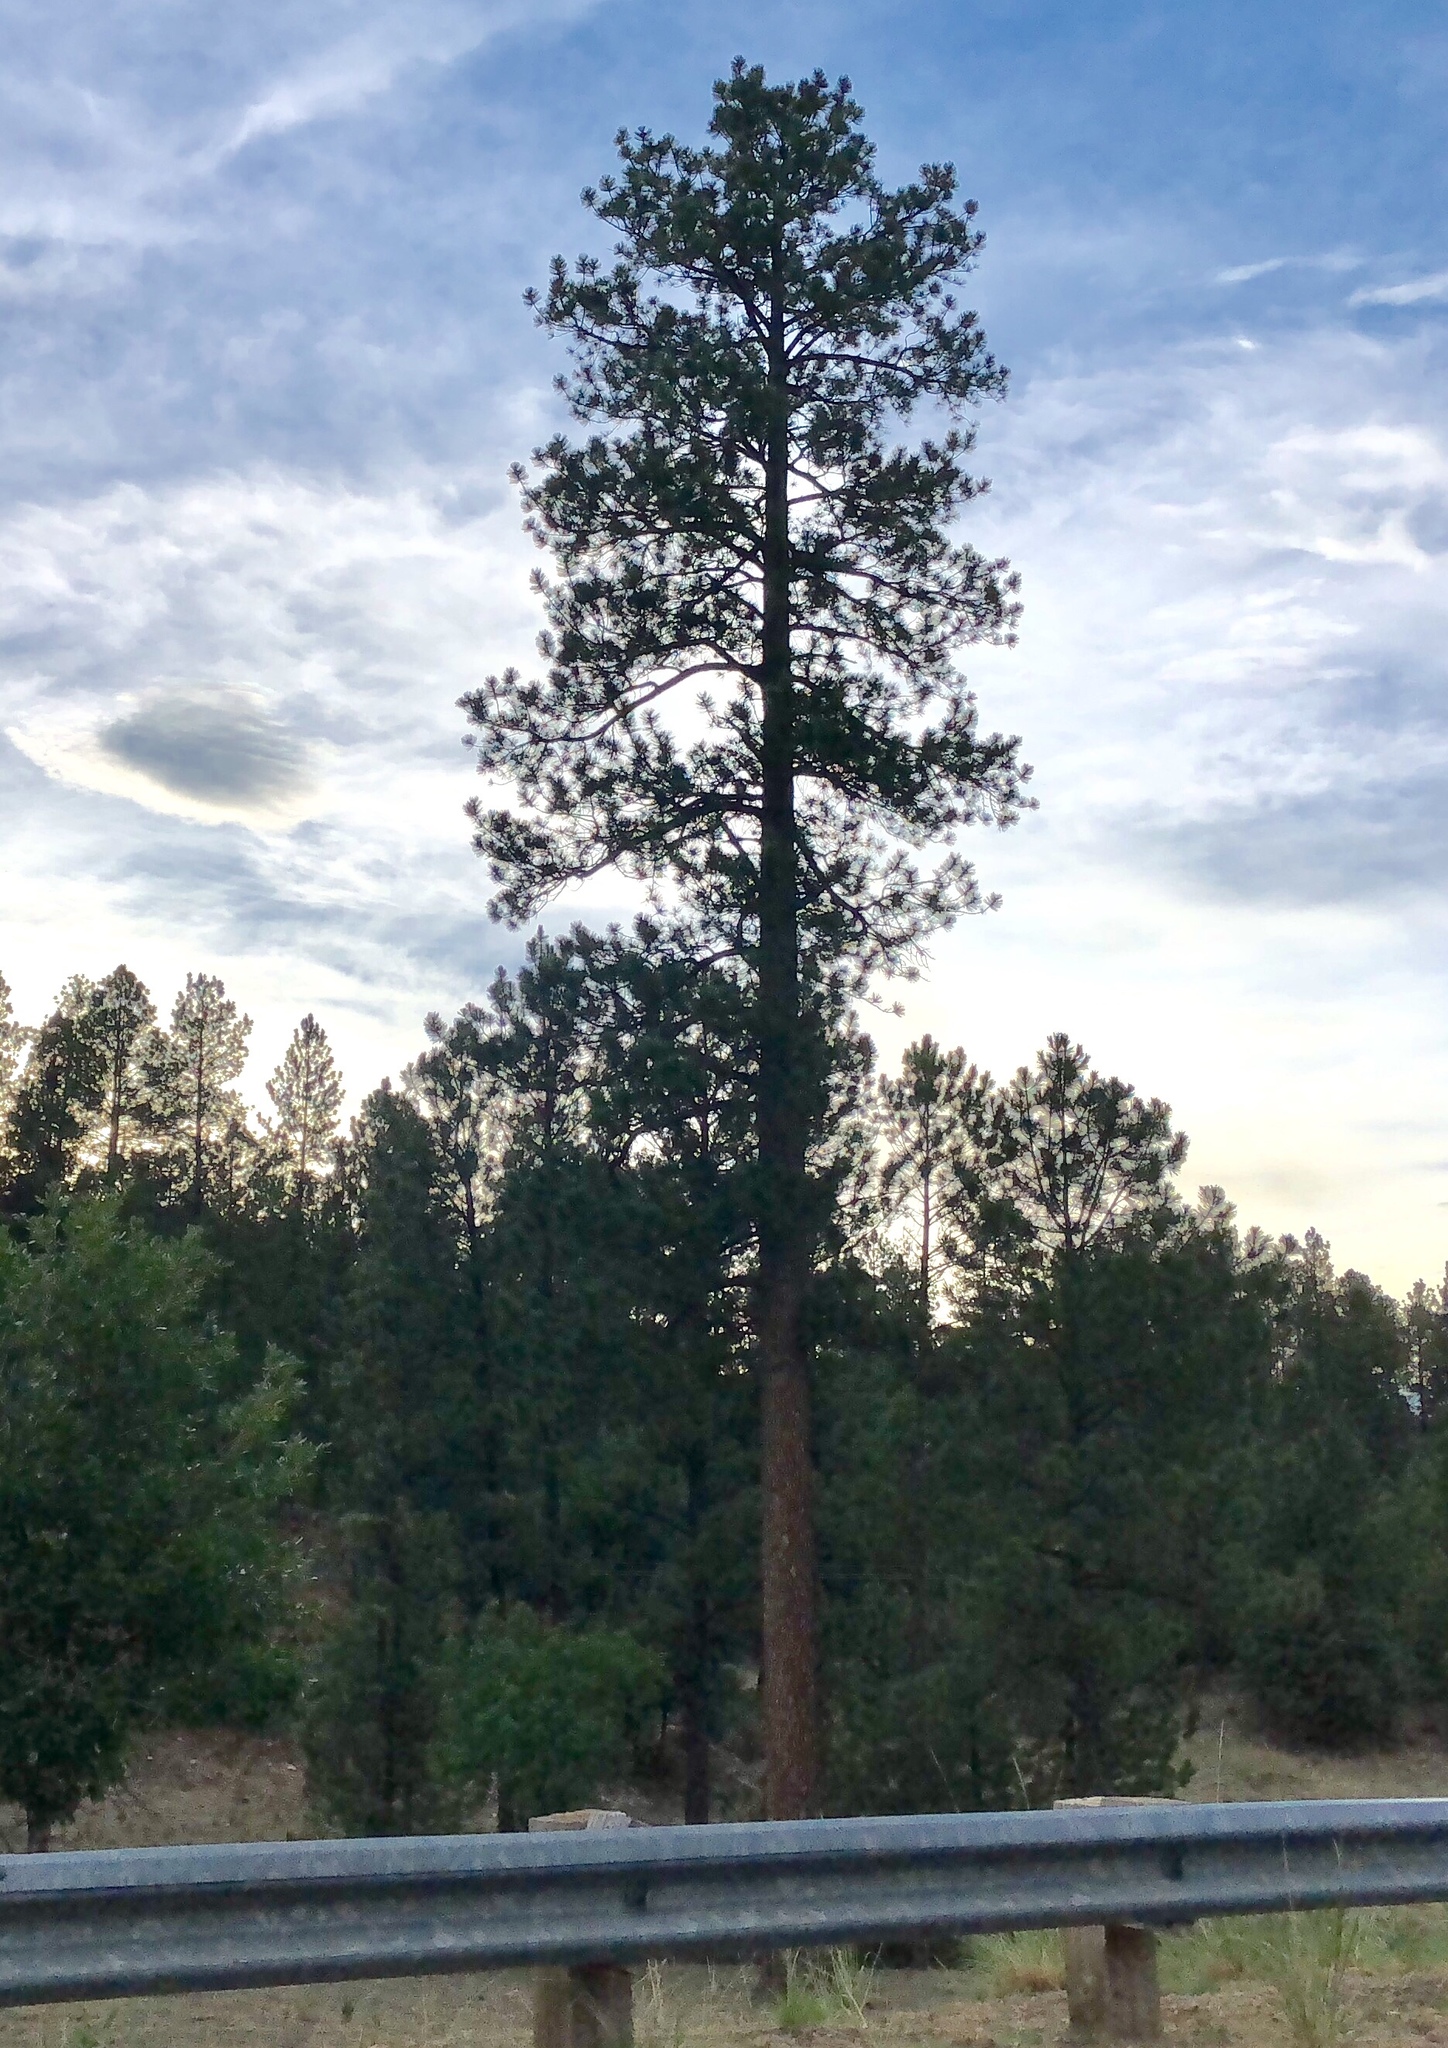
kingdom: Plantae
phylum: Tracheophyta
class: Pinopsida
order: Pinales
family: Pinaceae
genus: Pinus
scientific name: Pinus ponderosa
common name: Western yellow-pine
